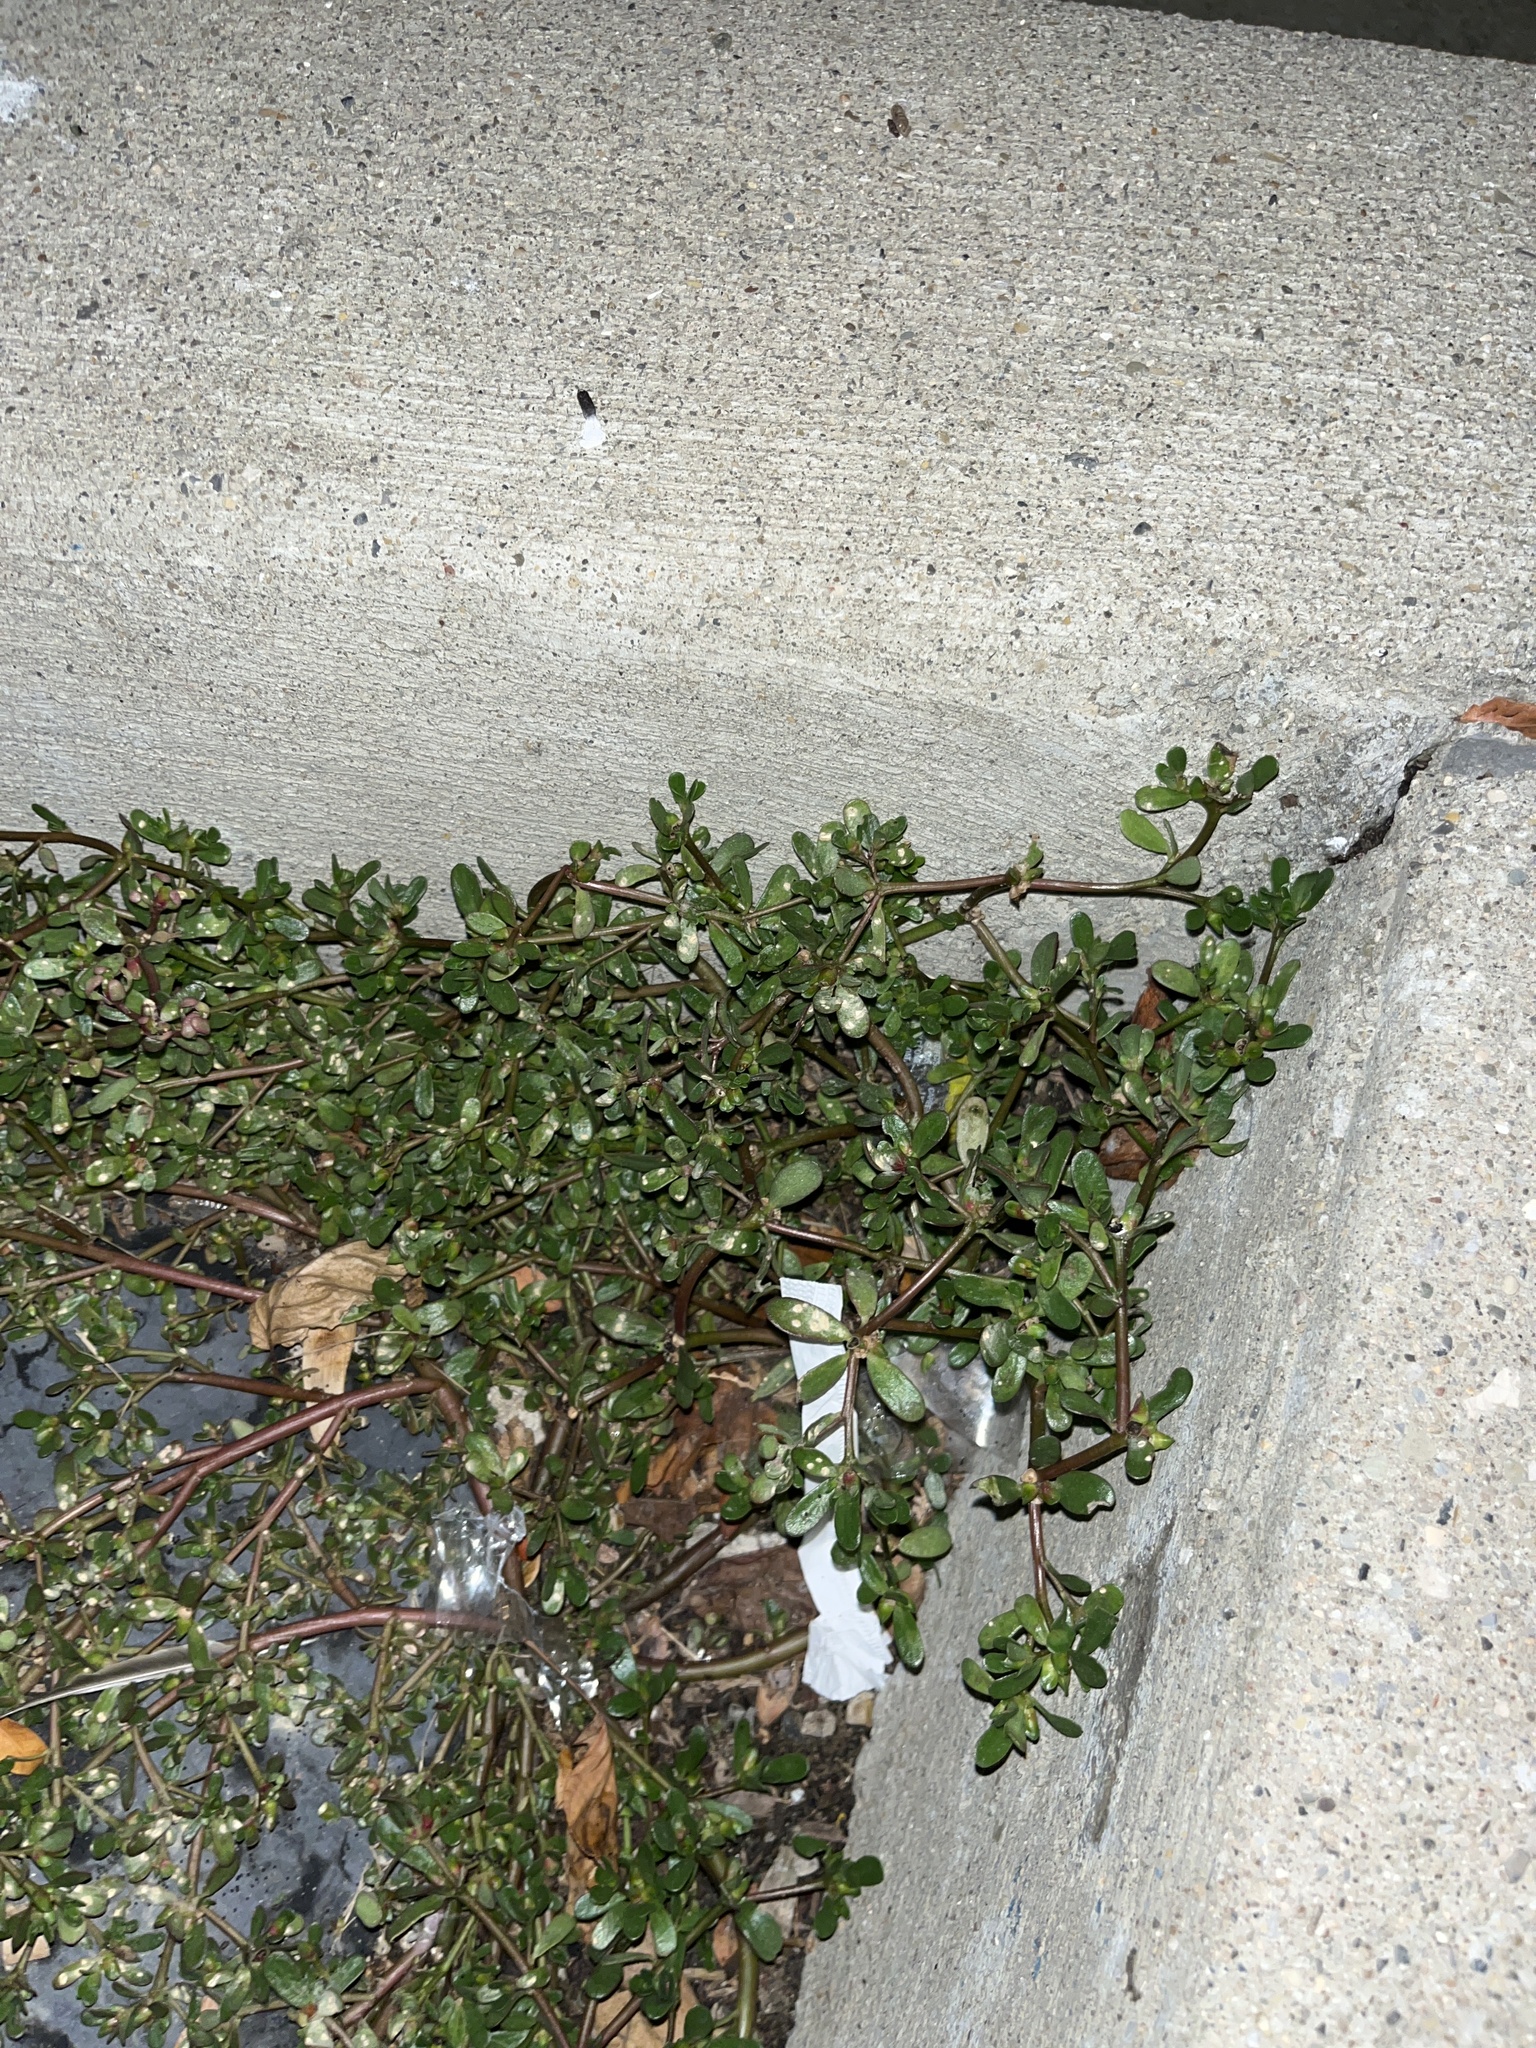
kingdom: Plantae
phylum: Tracheophyta
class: Magnoliopsida
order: Caryophyllales
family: Portulacaceae
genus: Portulaca
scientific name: Portulaca oleracea
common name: Common purslane
